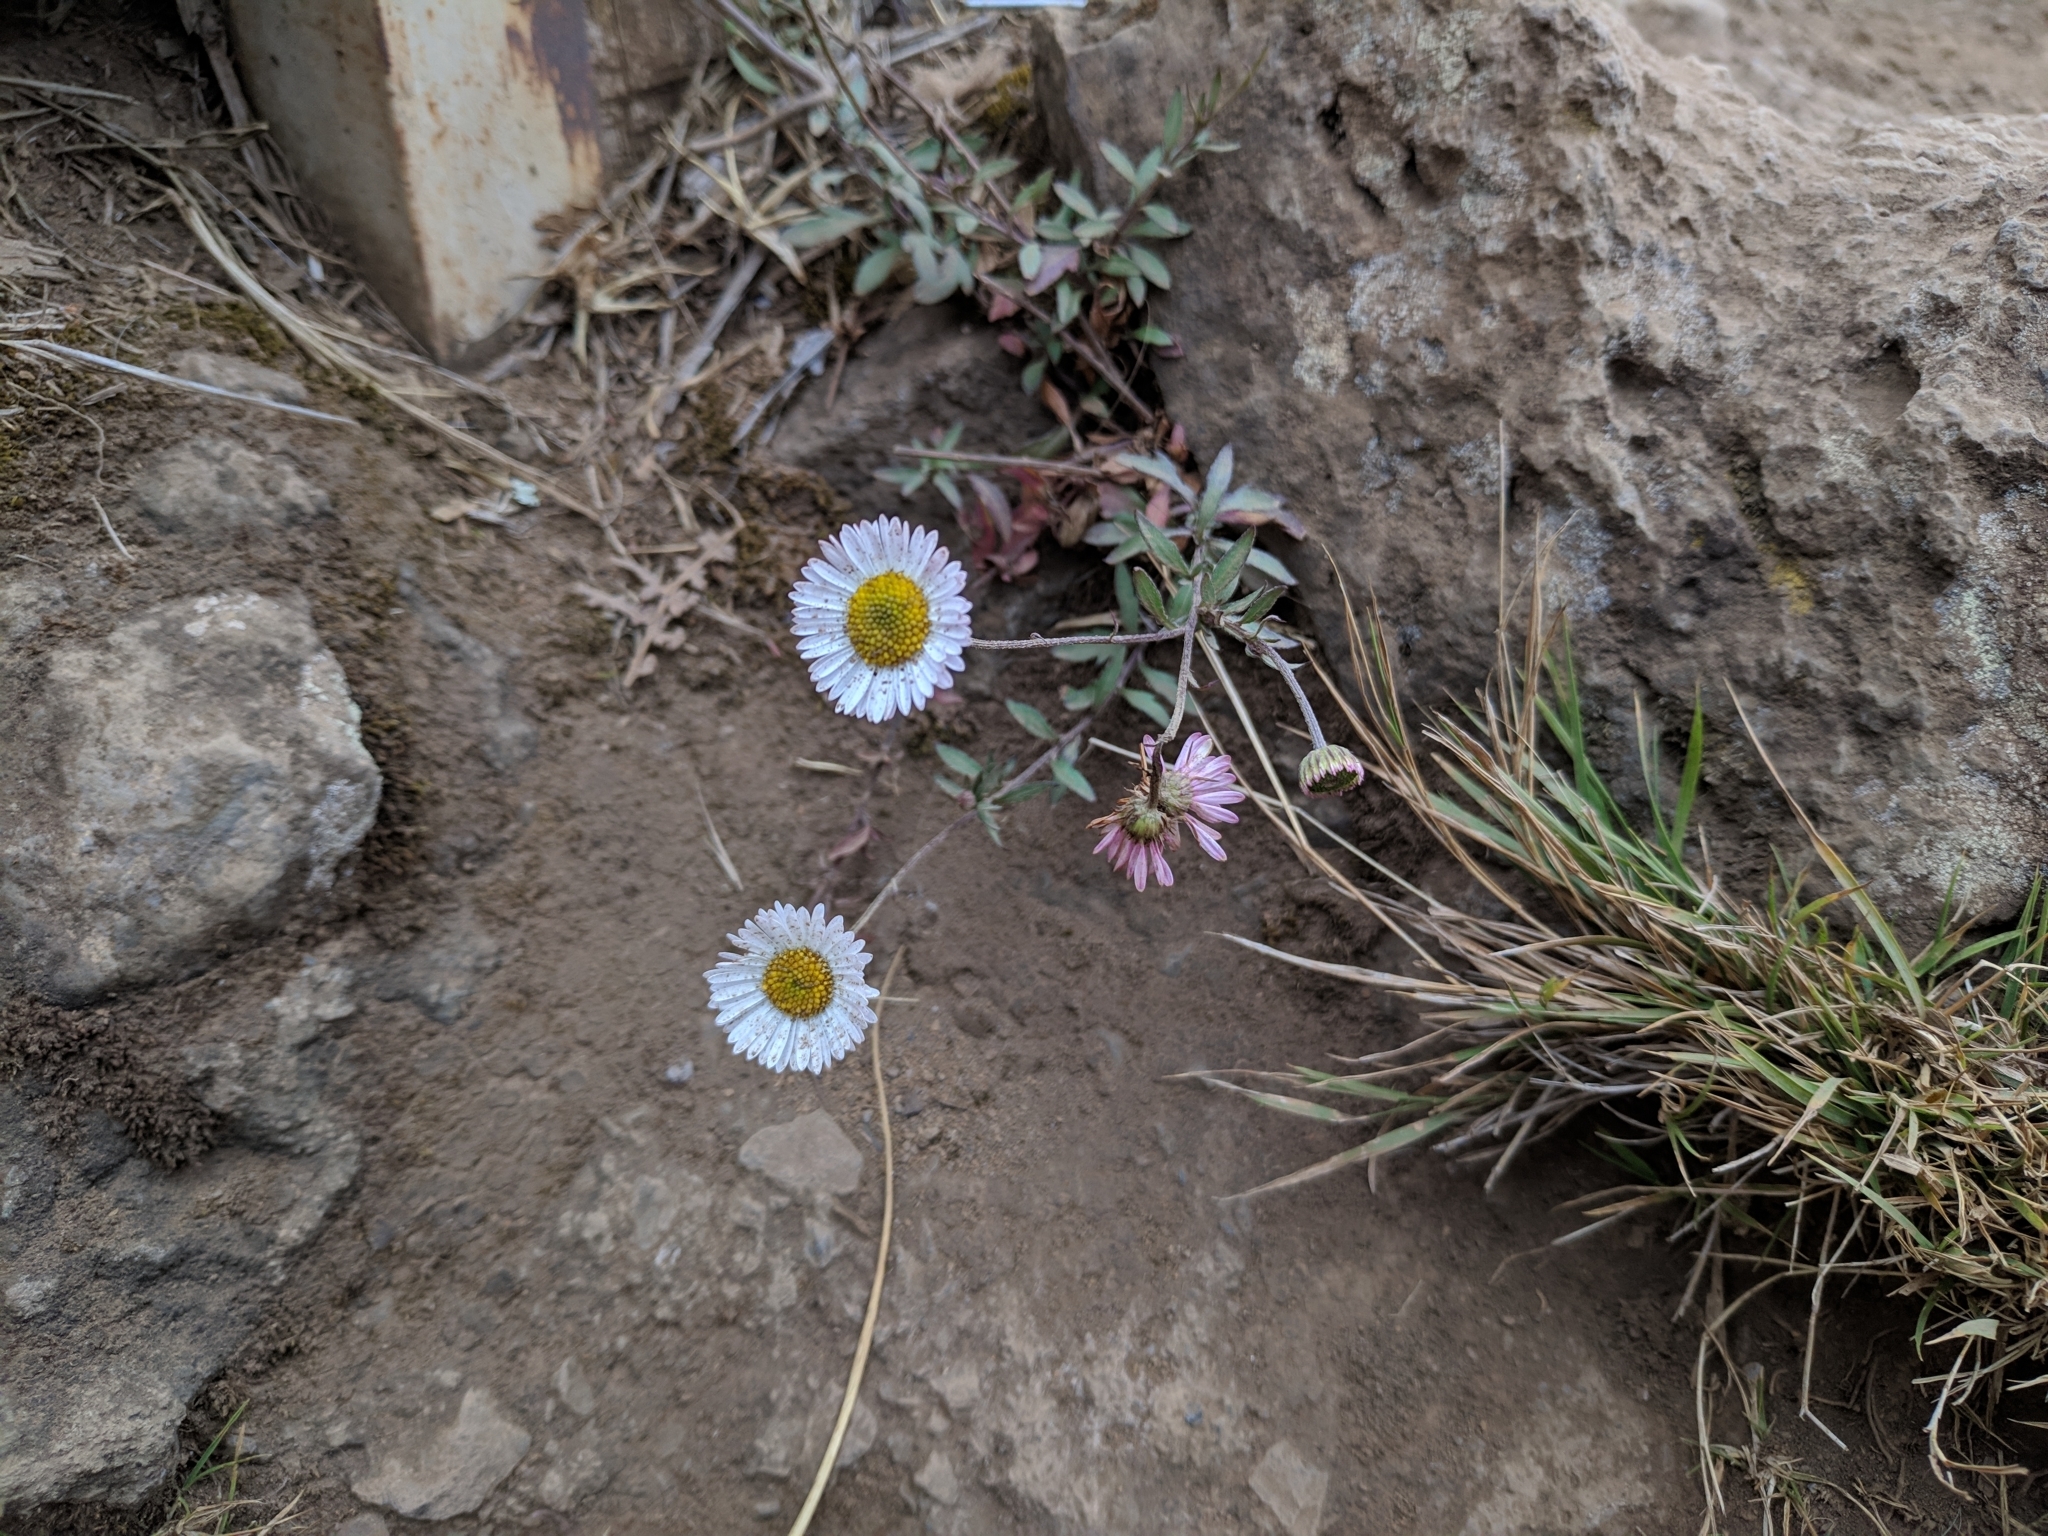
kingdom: Plantae
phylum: Tracheophyta
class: Magnoliopsida
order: Asterales
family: Asteraceae
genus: Erigeron
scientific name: Erigeron karvinskianus
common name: Mexican fleabane
